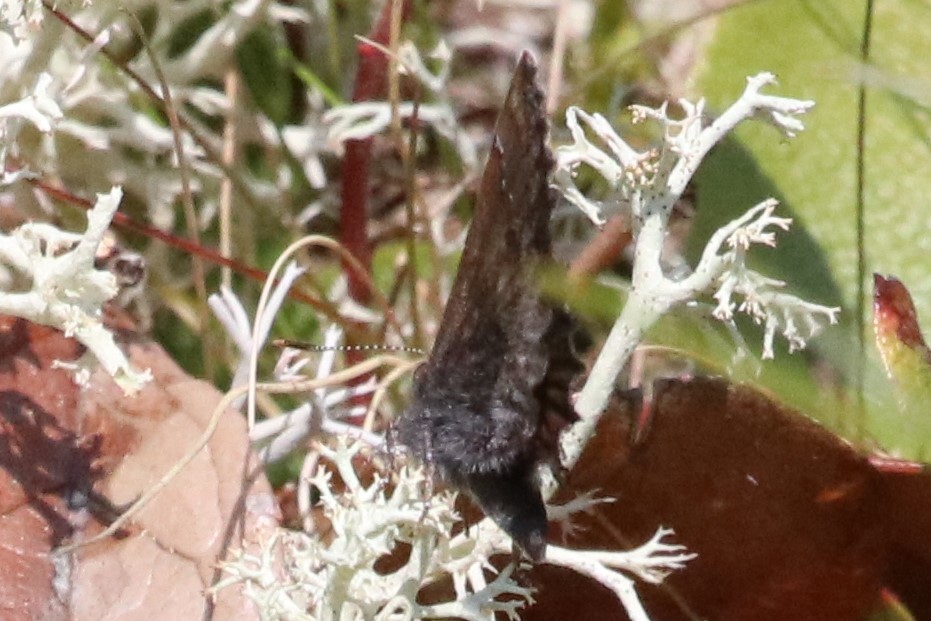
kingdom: Animalia
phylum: Arthropoda
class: Insecta
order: Lepidoptera
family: Lycaenidae
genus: Callophrys
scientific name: Callophrys polios
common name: Hoary elfin
